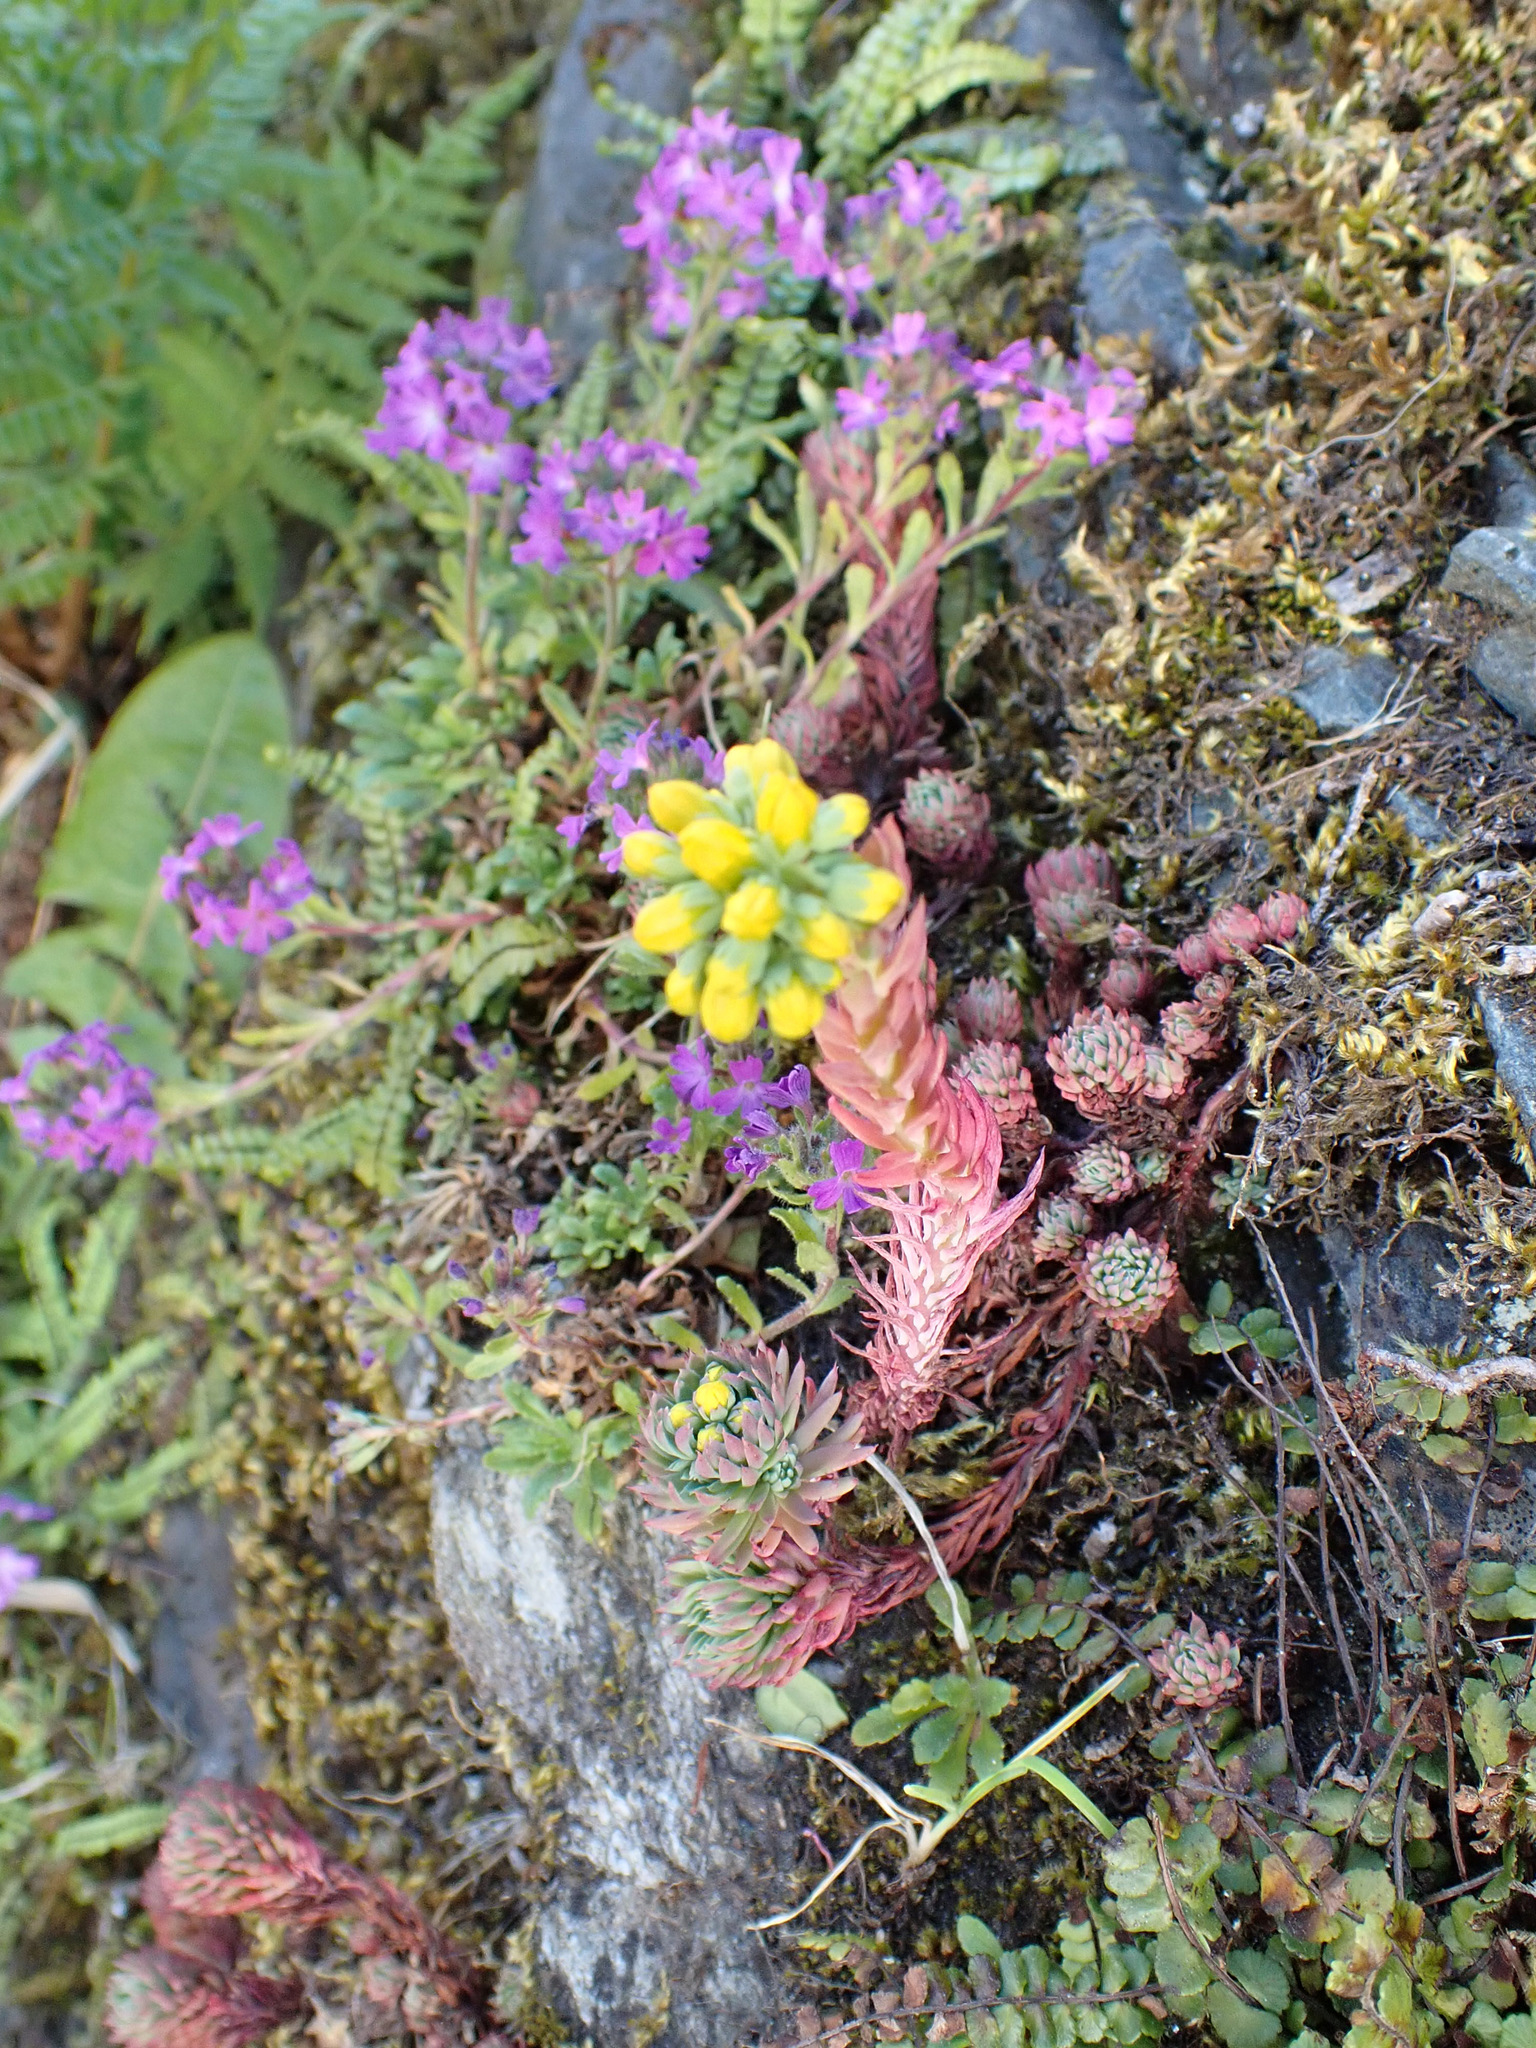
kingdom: Plantae
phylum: Tracheophyta
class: Magnoliopsida
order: Saxifragales
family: Crassulaceae
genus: Petrosedum
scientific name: Petrosedum forsterianum
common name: Forster's stonecrop
